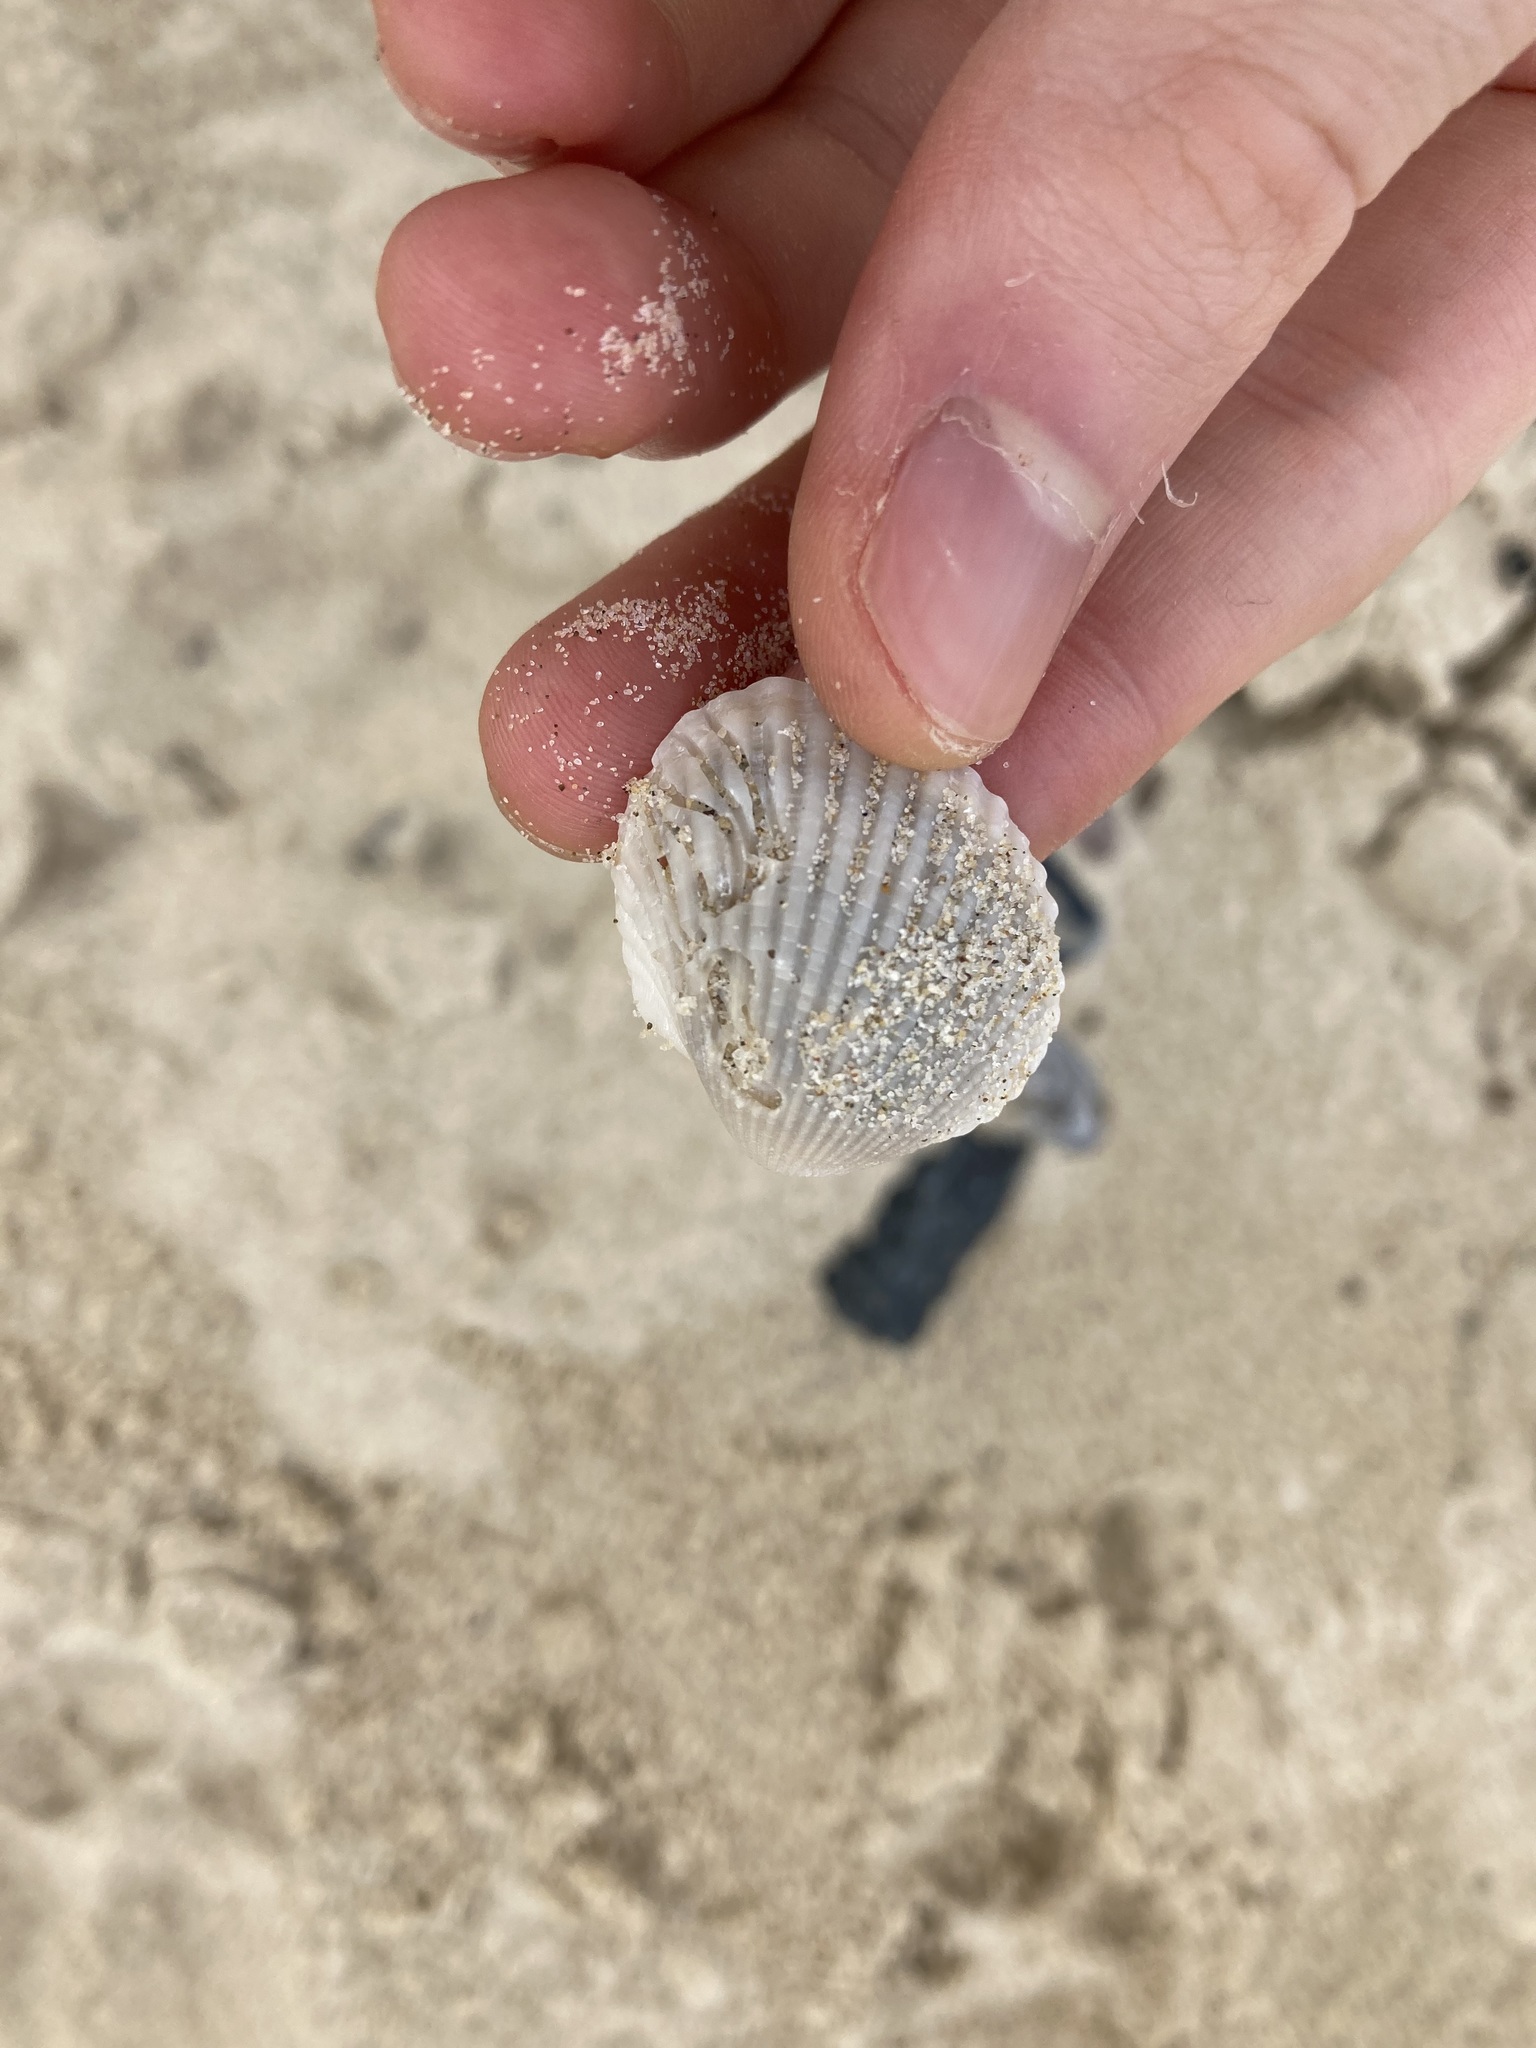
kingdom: Animalia
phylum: Mollusca
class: Bivalvia
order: Arcida
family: Arcidae
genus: Anadara
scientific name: Anadara trapezia
